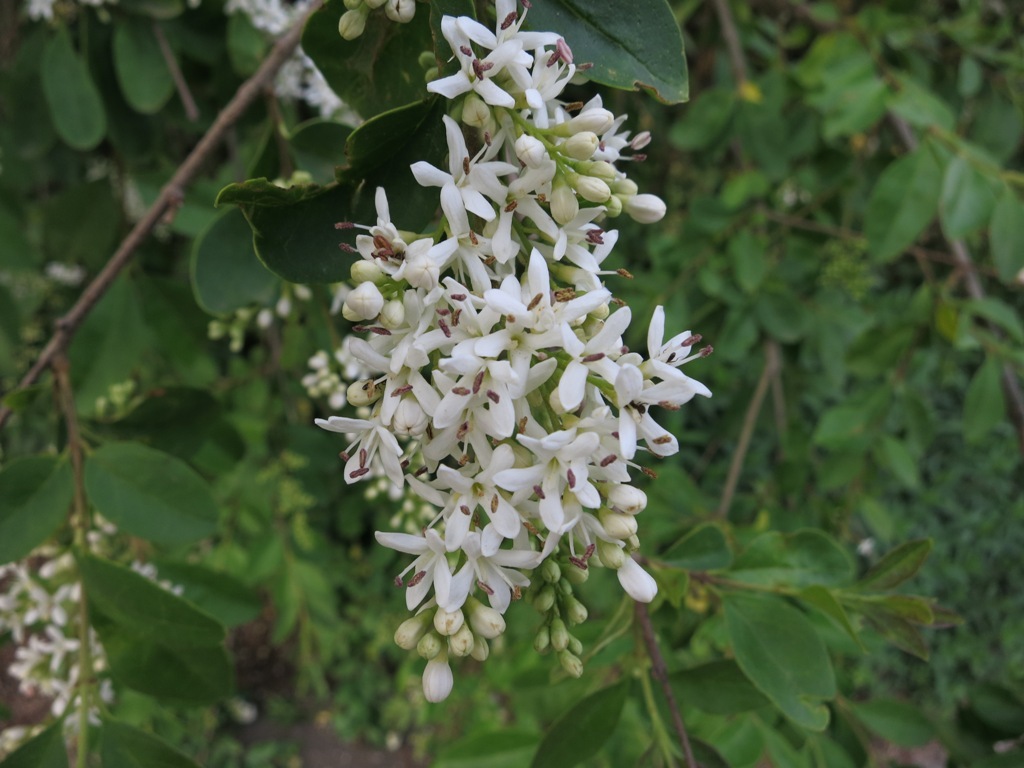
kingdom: Plantae
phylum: Tracheophyta
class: Magnoliopsida
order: Lamiales
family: Oleaceae
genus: Ligustrum
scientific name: Ligustrum sinense
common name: Chinese privet
